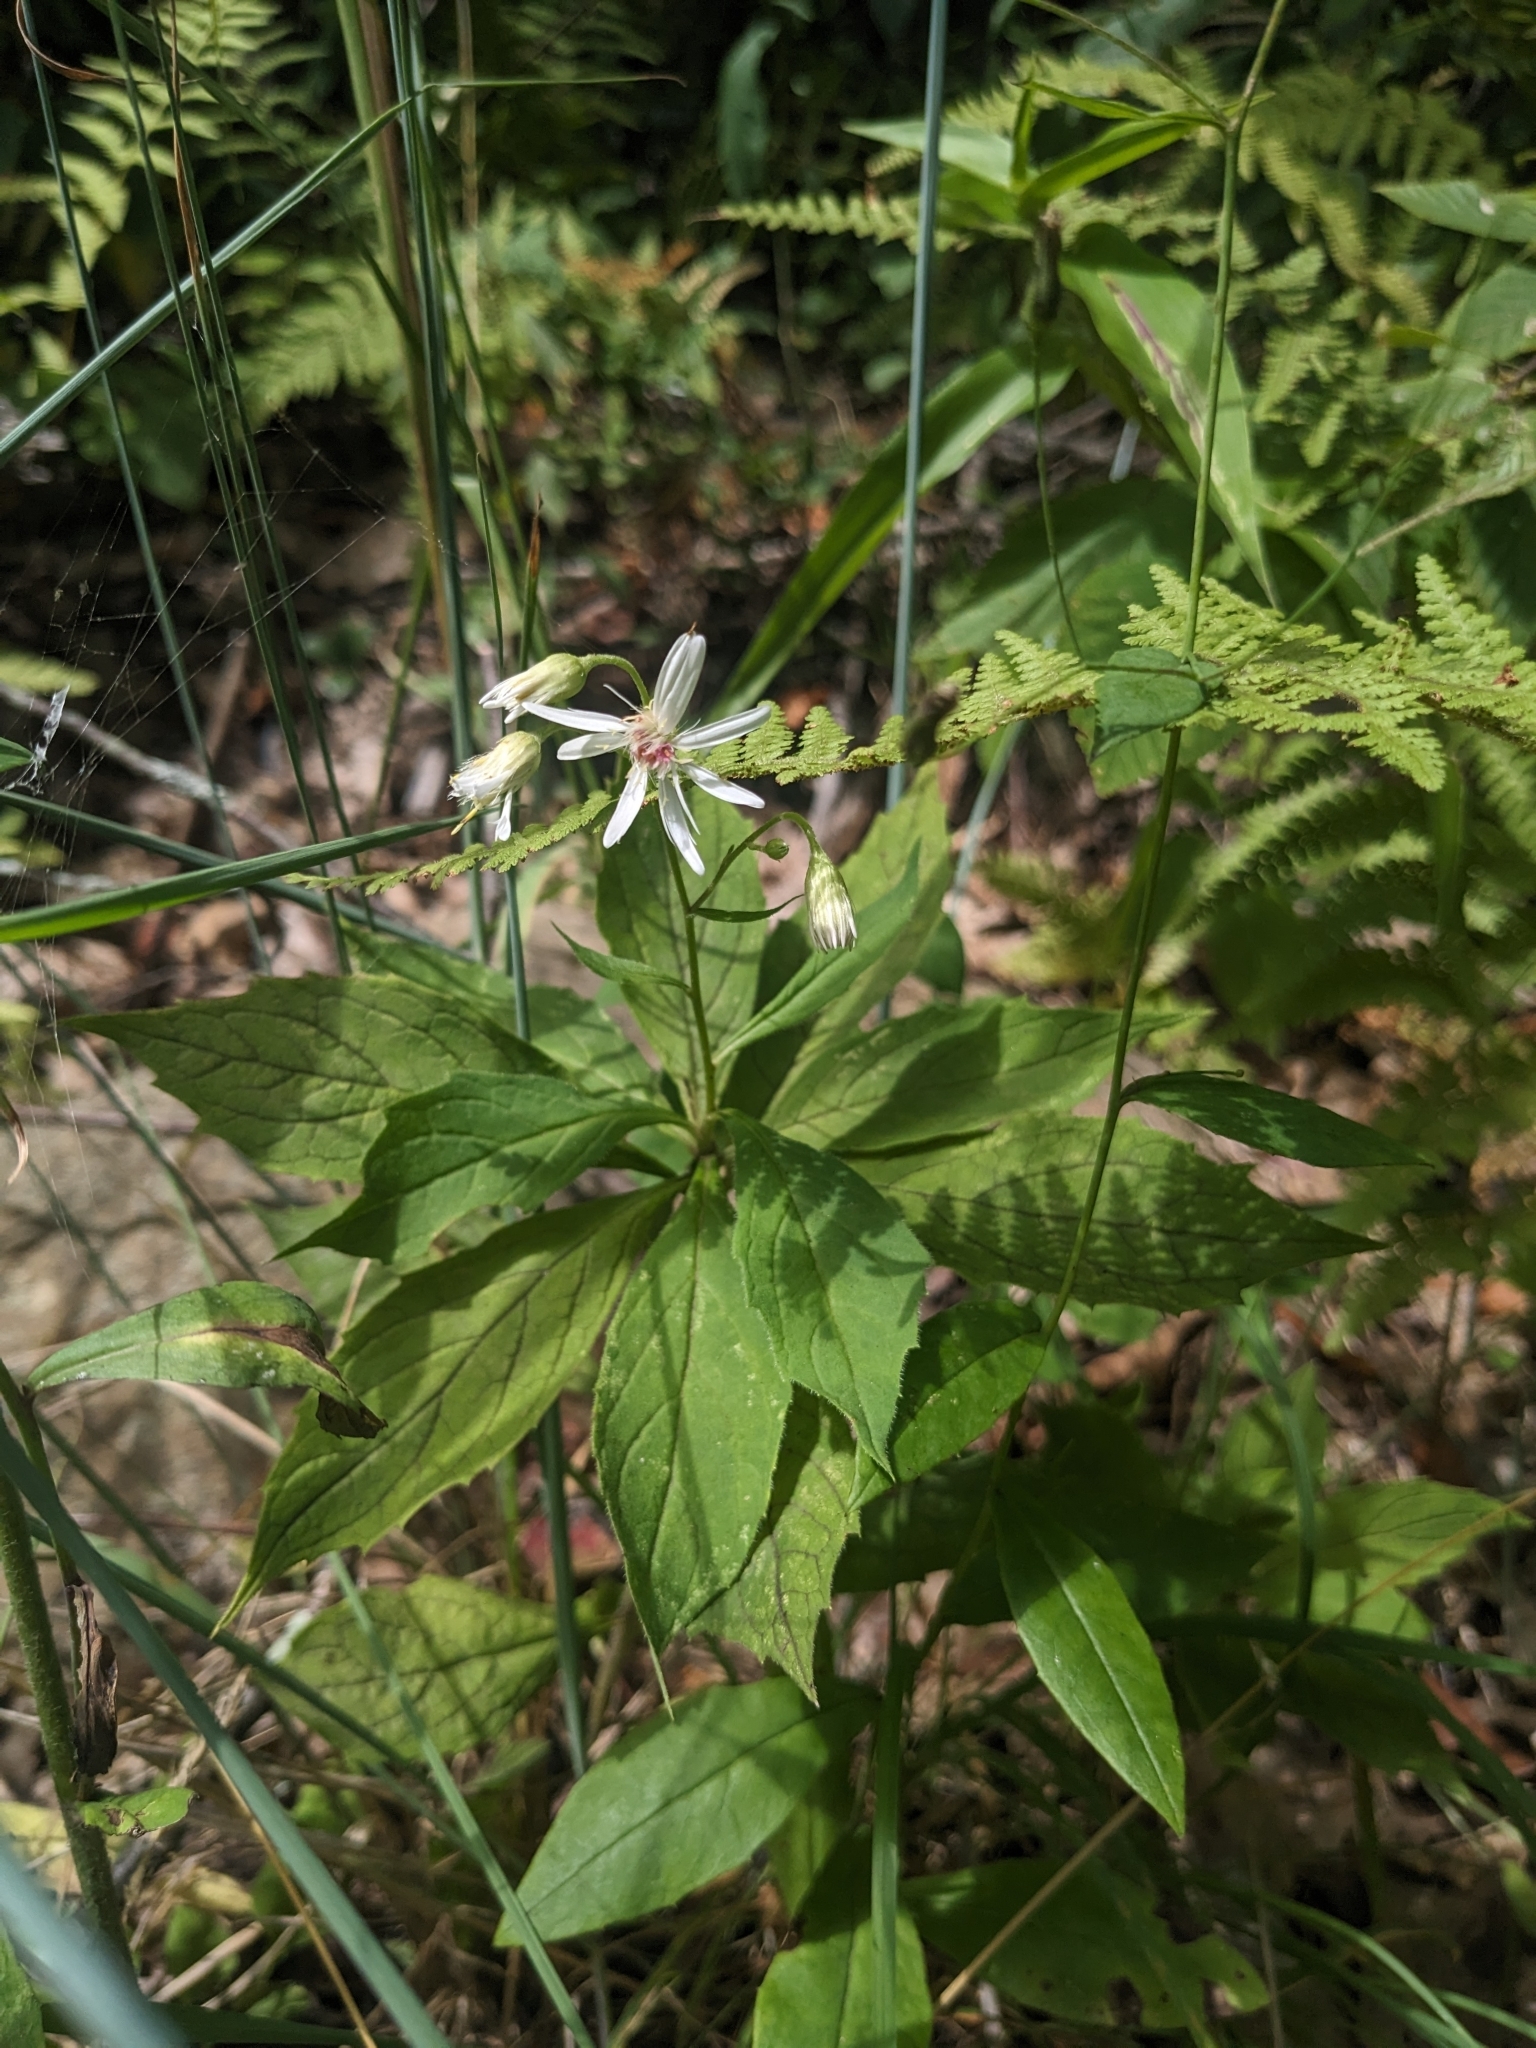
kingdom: Plantae
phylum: Tracheophyta
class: Magnoliopsida
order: Asterales
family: Asteraceae
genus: Oclemena
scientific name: Oclemena acuminata
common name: Mountain aster
